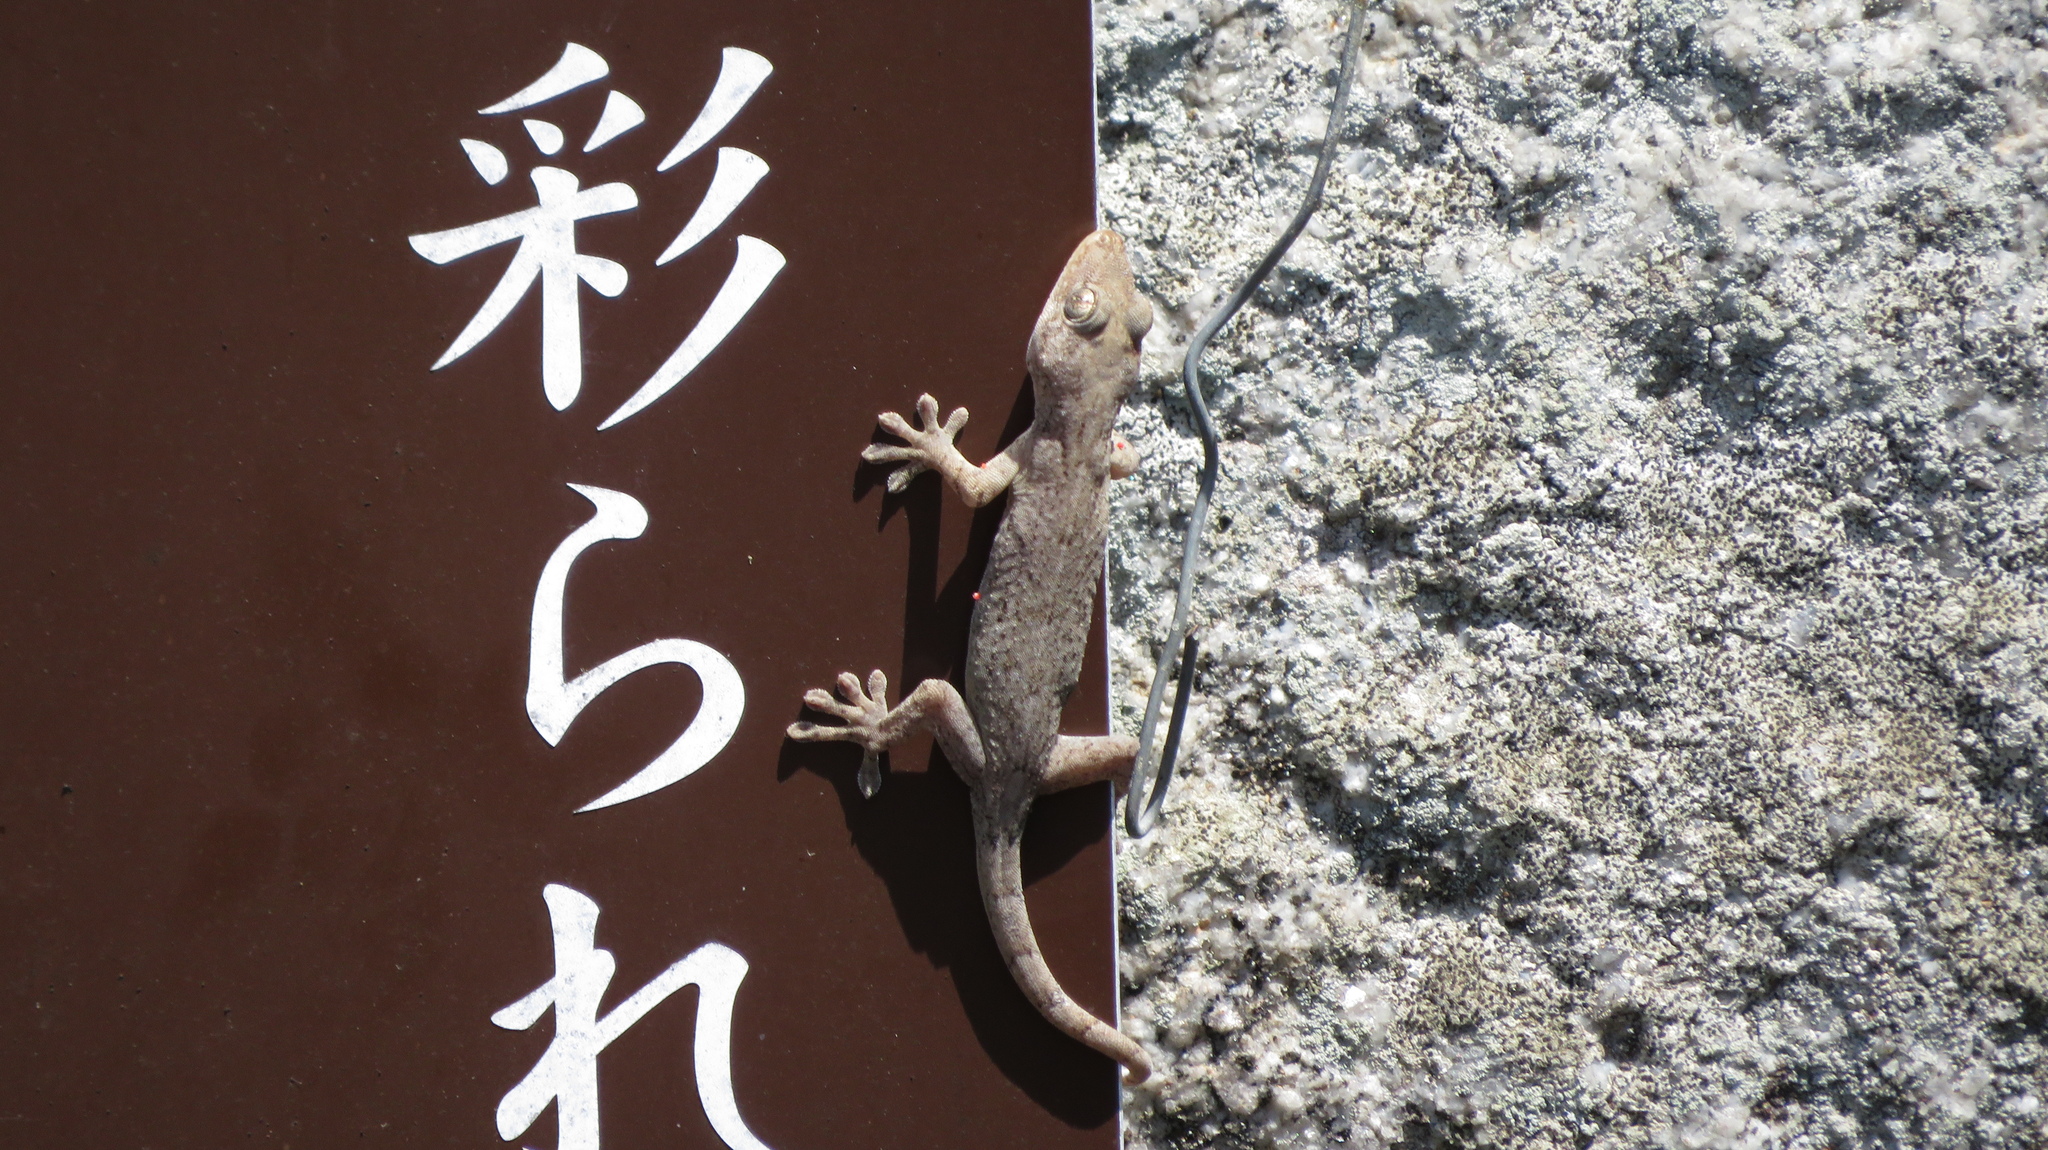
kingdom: Animalia
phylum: Chordata
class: Squamata
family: Gekkonidae
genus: Gekko
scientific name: Gekko japonicus
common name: Schlegel's japanese gecko
